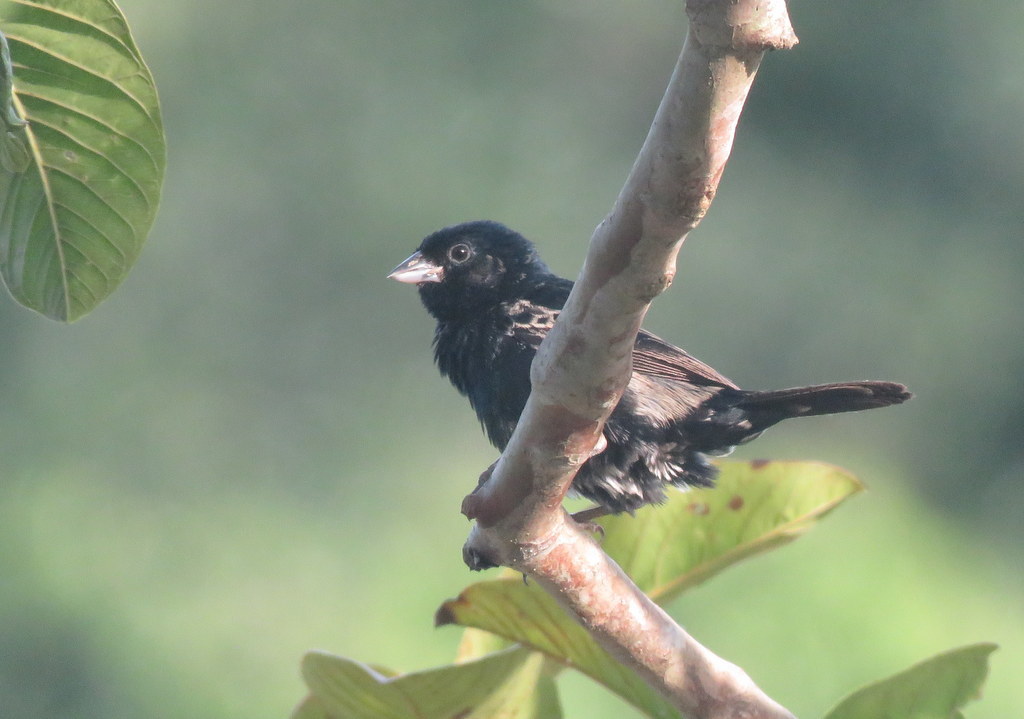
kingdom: Animalia
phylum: Chordata
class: Aves
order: Passeriformes
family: Thraupidae
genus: Volatinia
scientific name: Volatinia jacarina
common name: Blue-black grassquit
